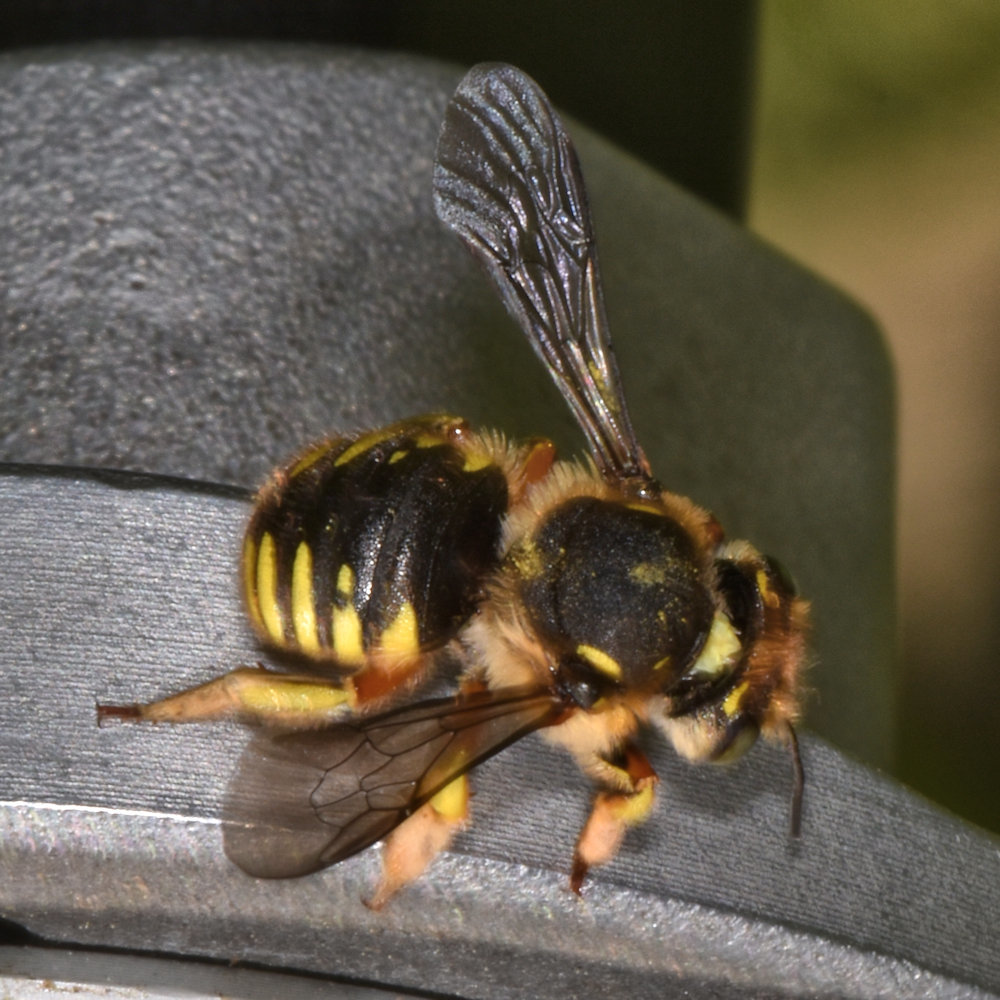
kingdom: Animalia
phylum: Arthropoda
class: Insecta
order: Hymenoptera
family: Megachilidae
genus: Anthidium
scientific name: Anthidium manicatum
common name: Wool carder bee
